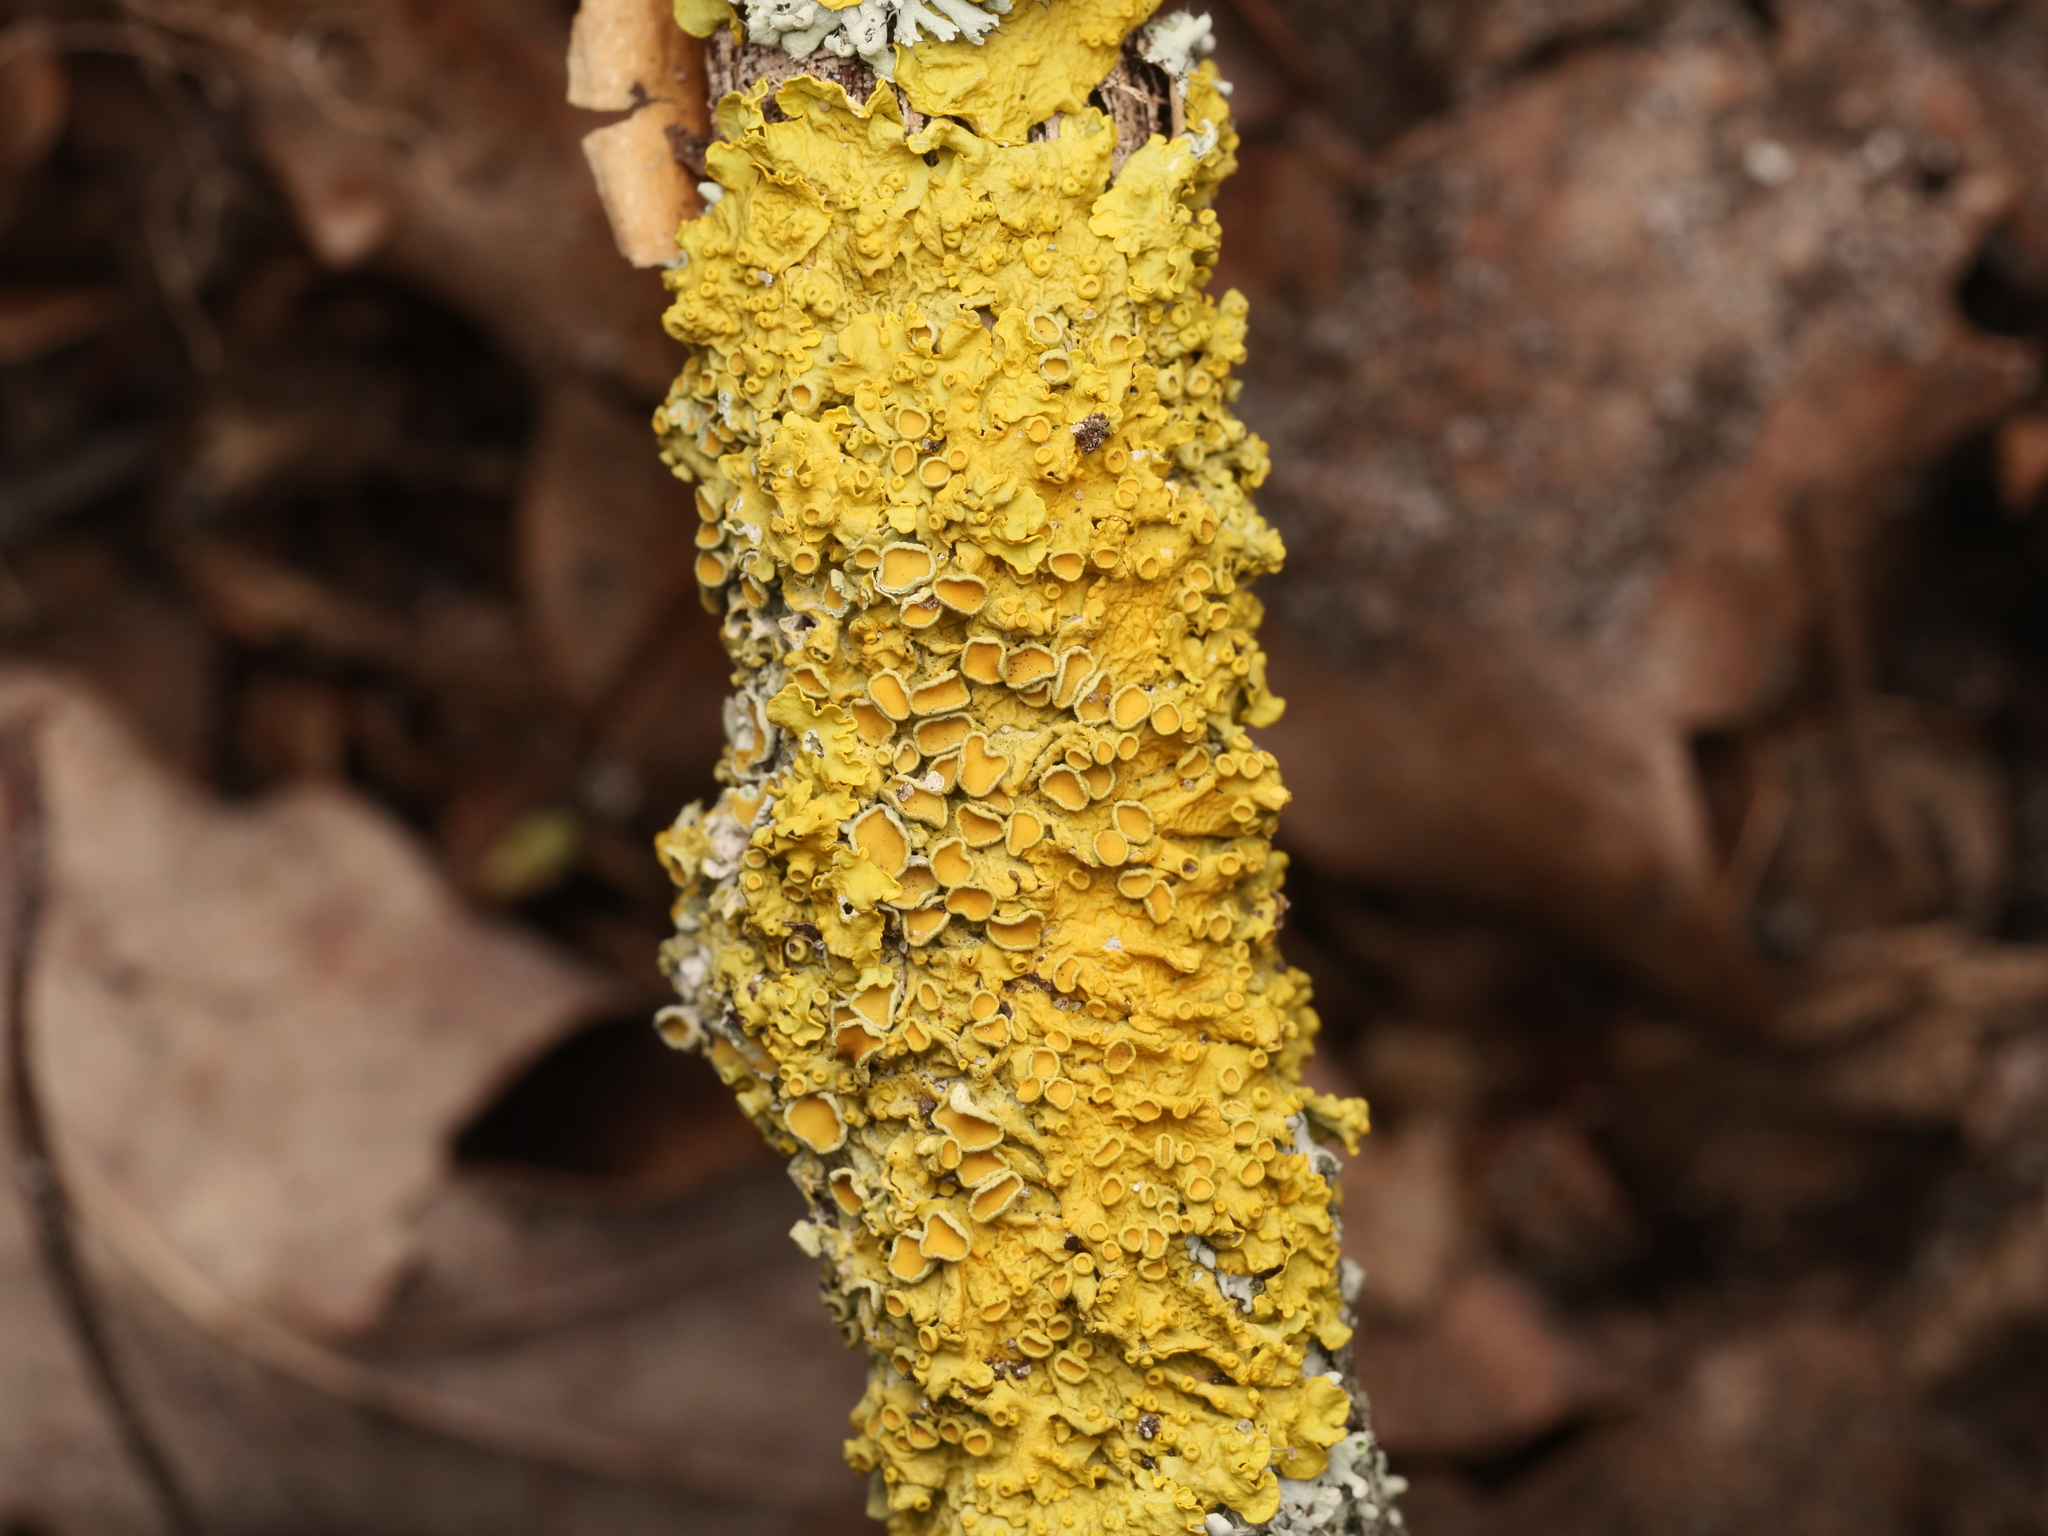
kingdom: Fungi
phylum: Ascomycota
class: Lecanoromycetes
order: Teloschistales
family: Teloschistaceae
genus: Xanthoria
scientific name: Xanthoria parietina
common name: Common orange lichen
